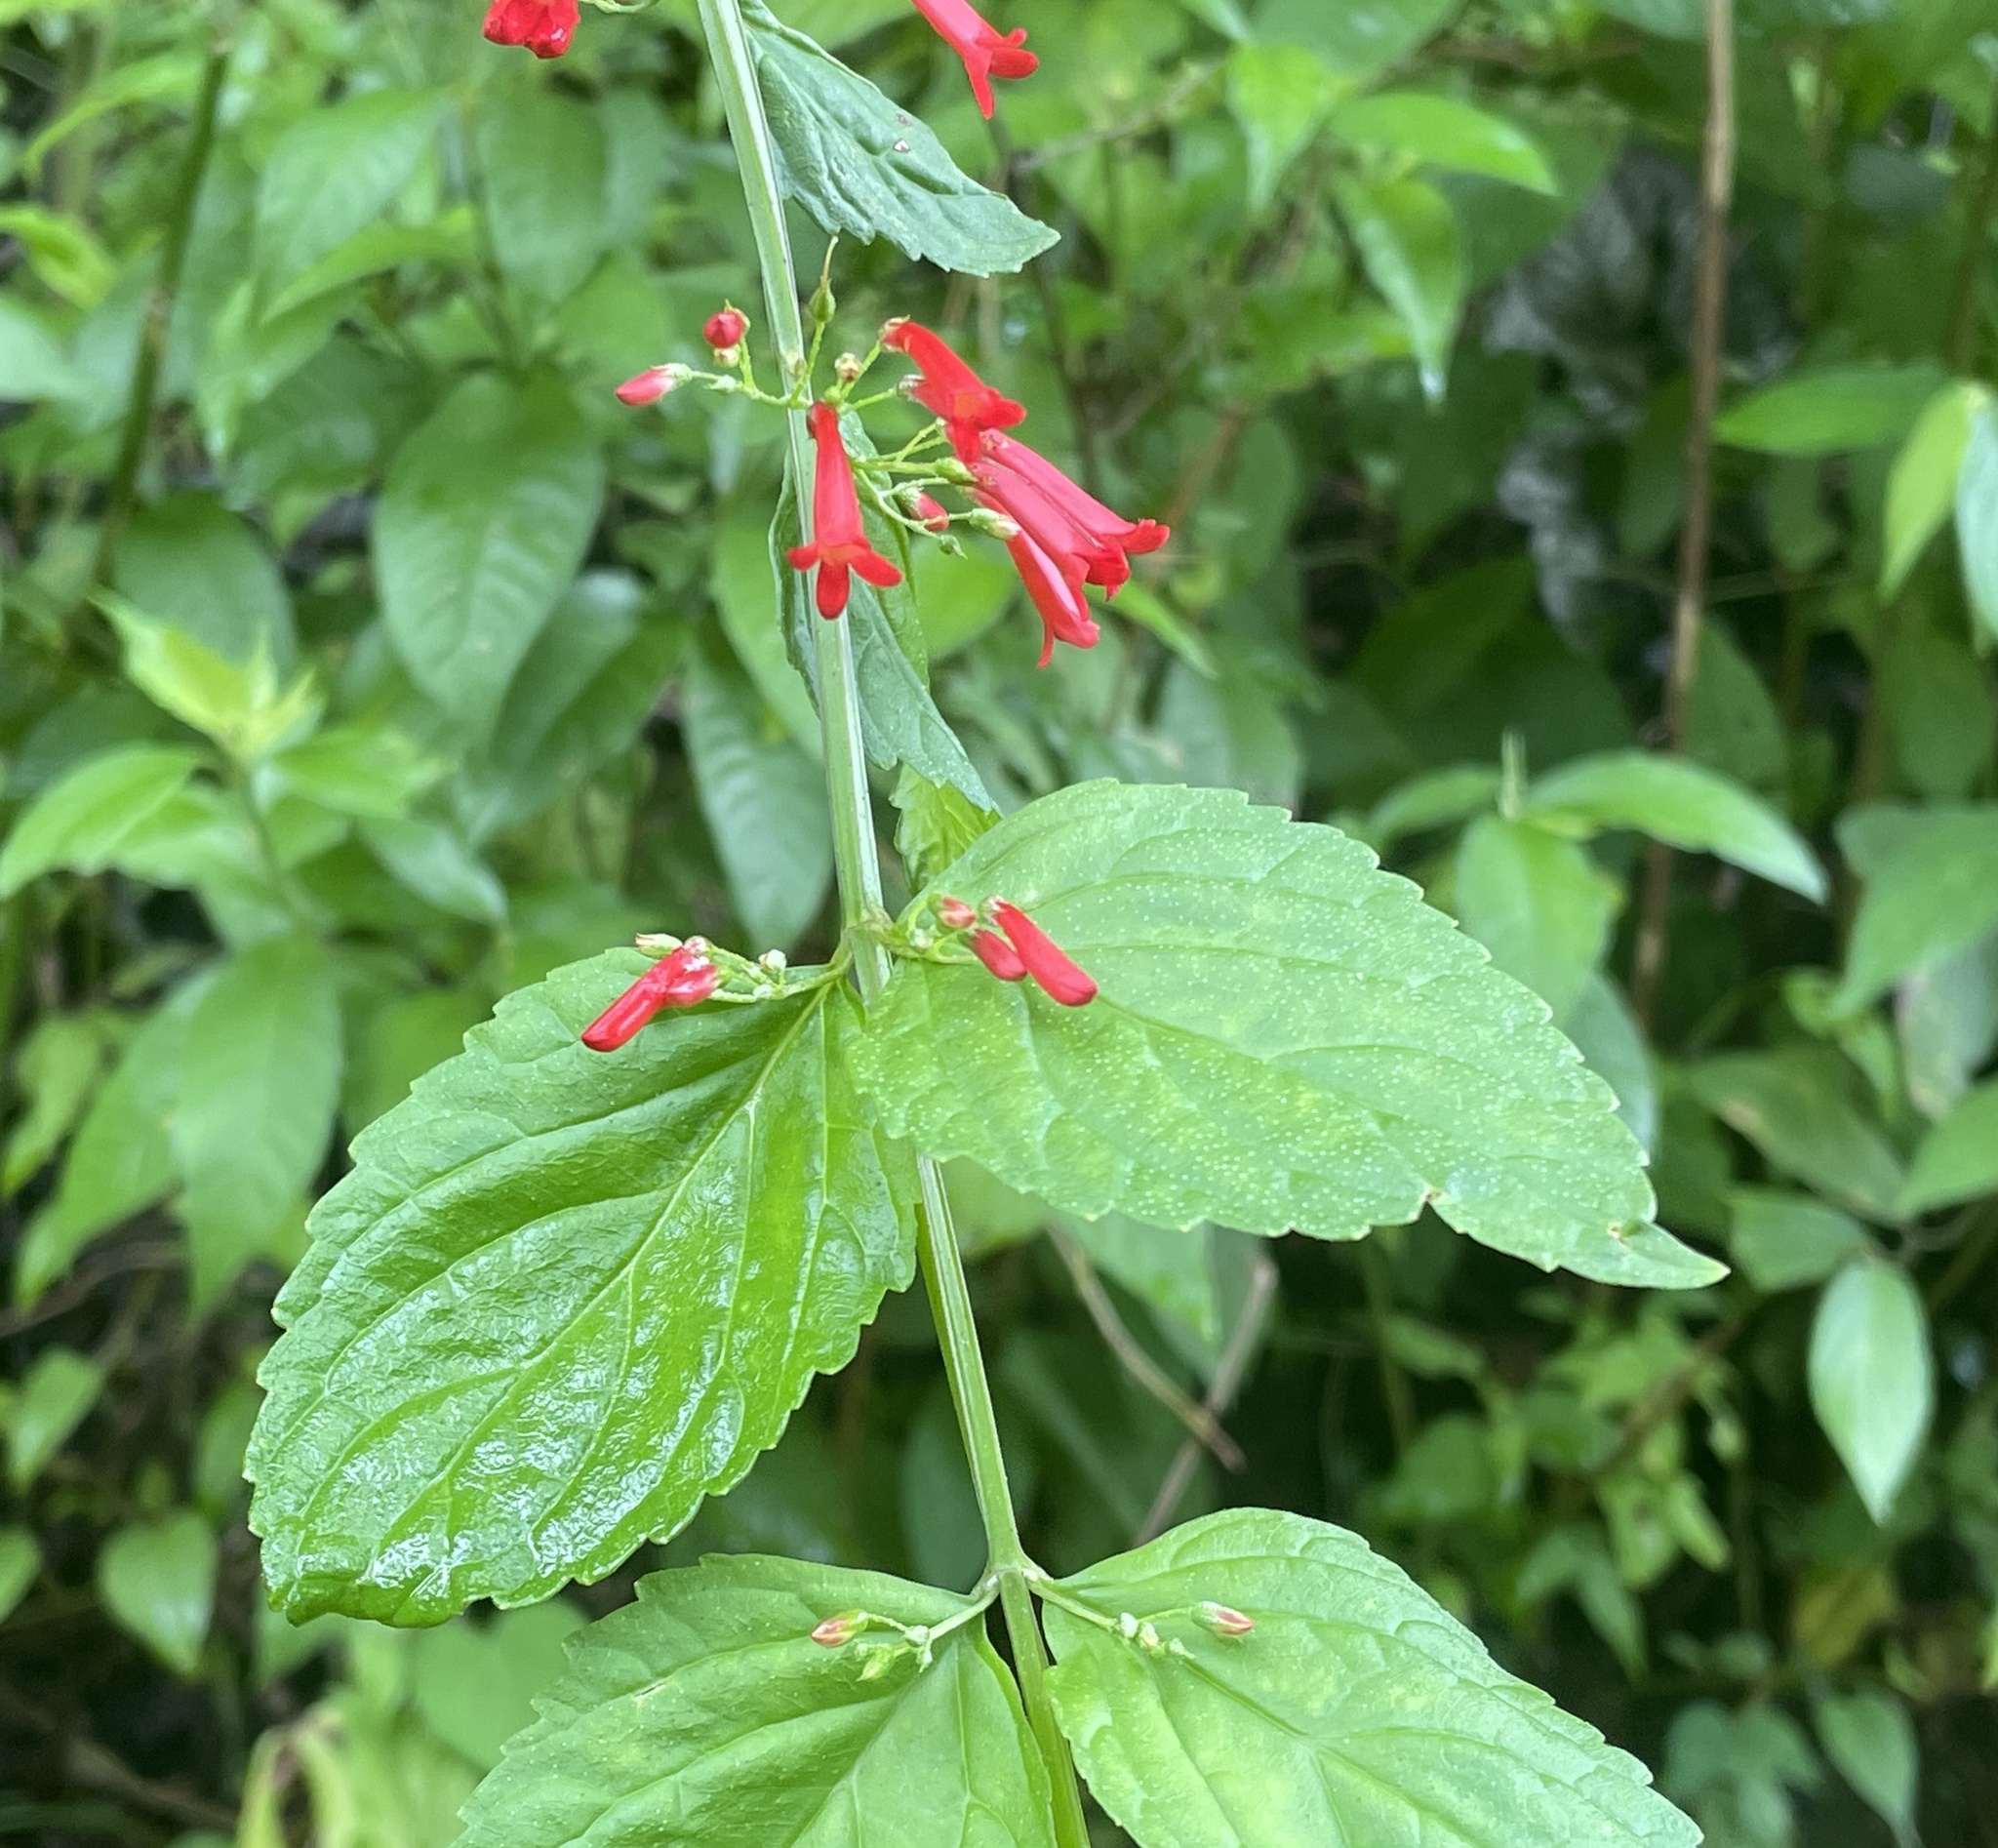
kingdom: Plantae
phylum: Tracheophyta
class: Magnoliopsida
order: Lamiales
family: Plantaginaceae
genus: Russelia
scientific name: Russelia sarmentosa
